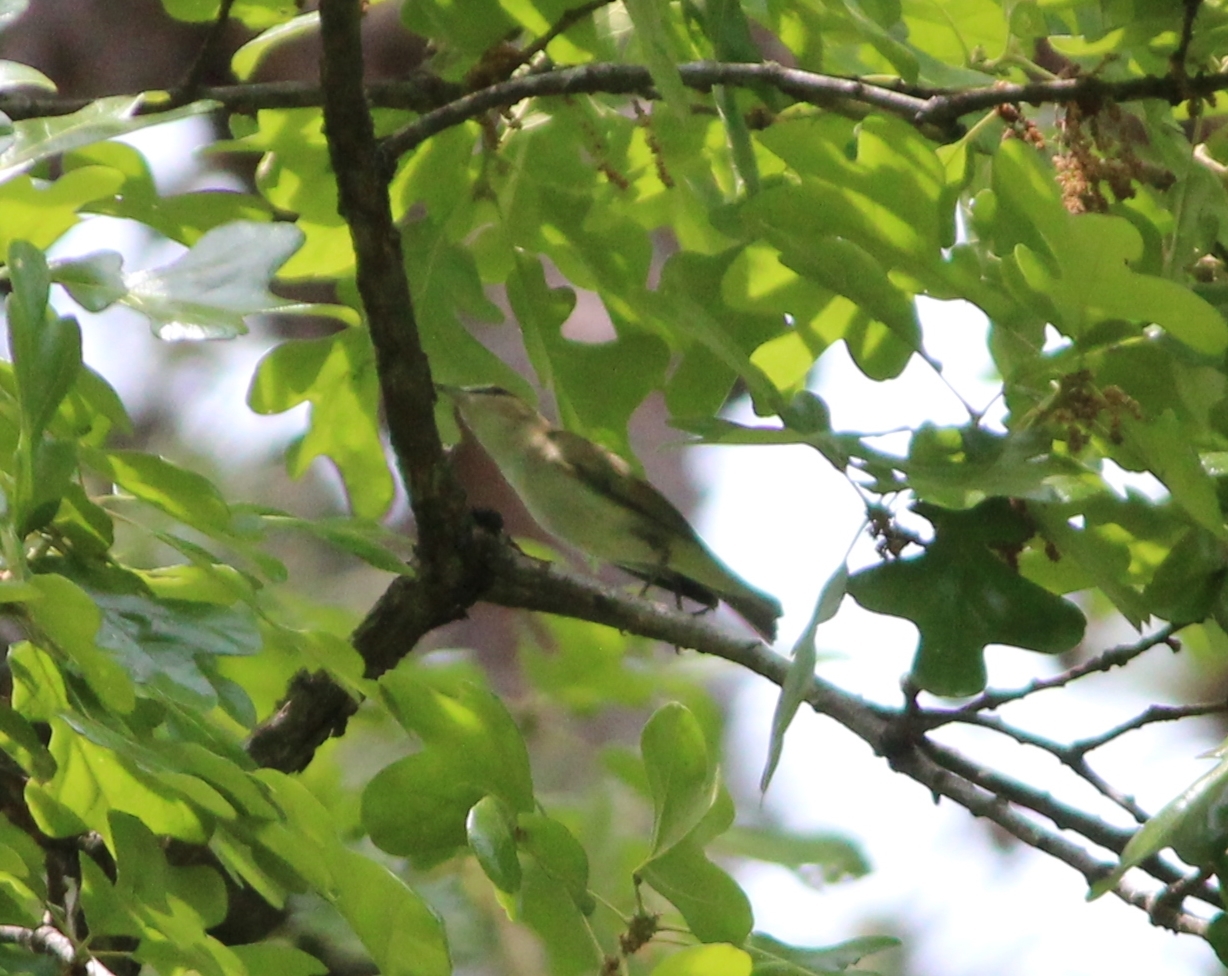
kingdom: Animalia
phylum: Chordata
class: Aves
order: Passeriformes
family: Vireonidae
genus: Vireo
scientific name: Vireo olivaceus
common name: Red-eyed vireo
